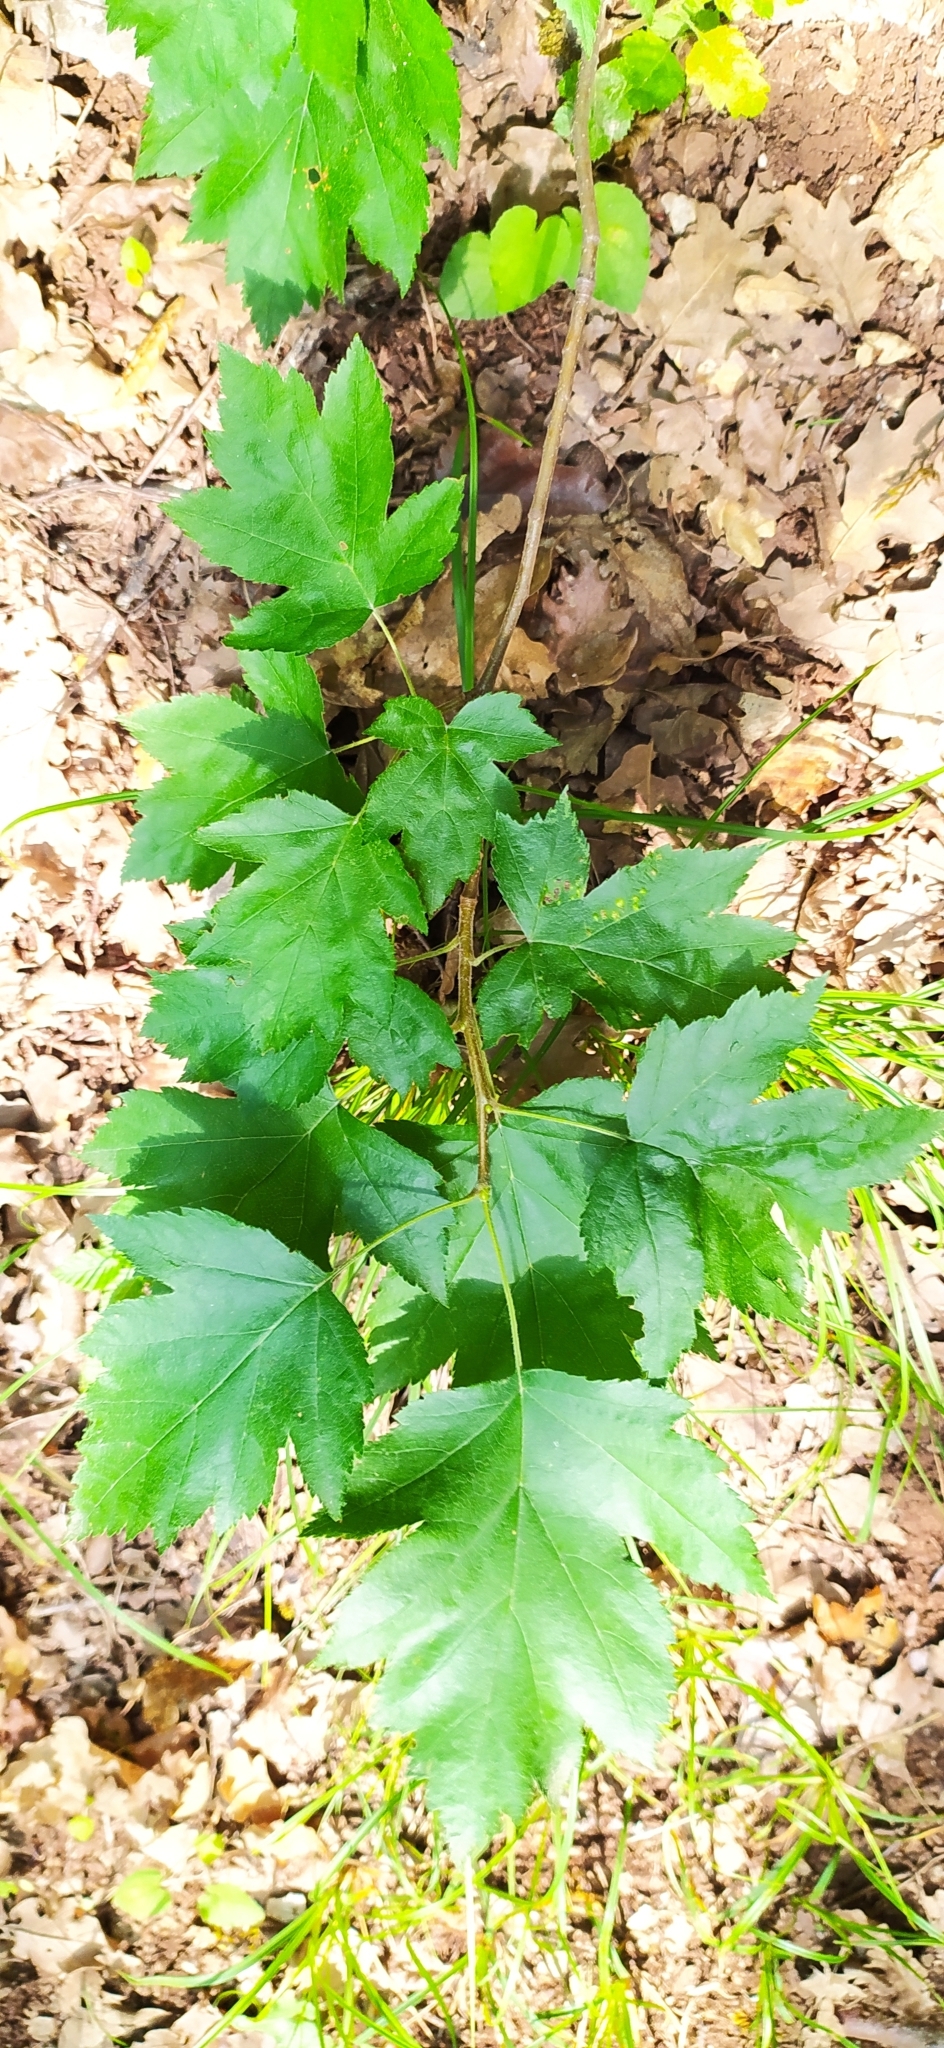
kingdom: Plantae
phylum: Tracheophyta
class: Magnoliopsida
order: Rosales
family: Rosaceae
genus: Torminalis
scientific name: Torminalis glaberrima
